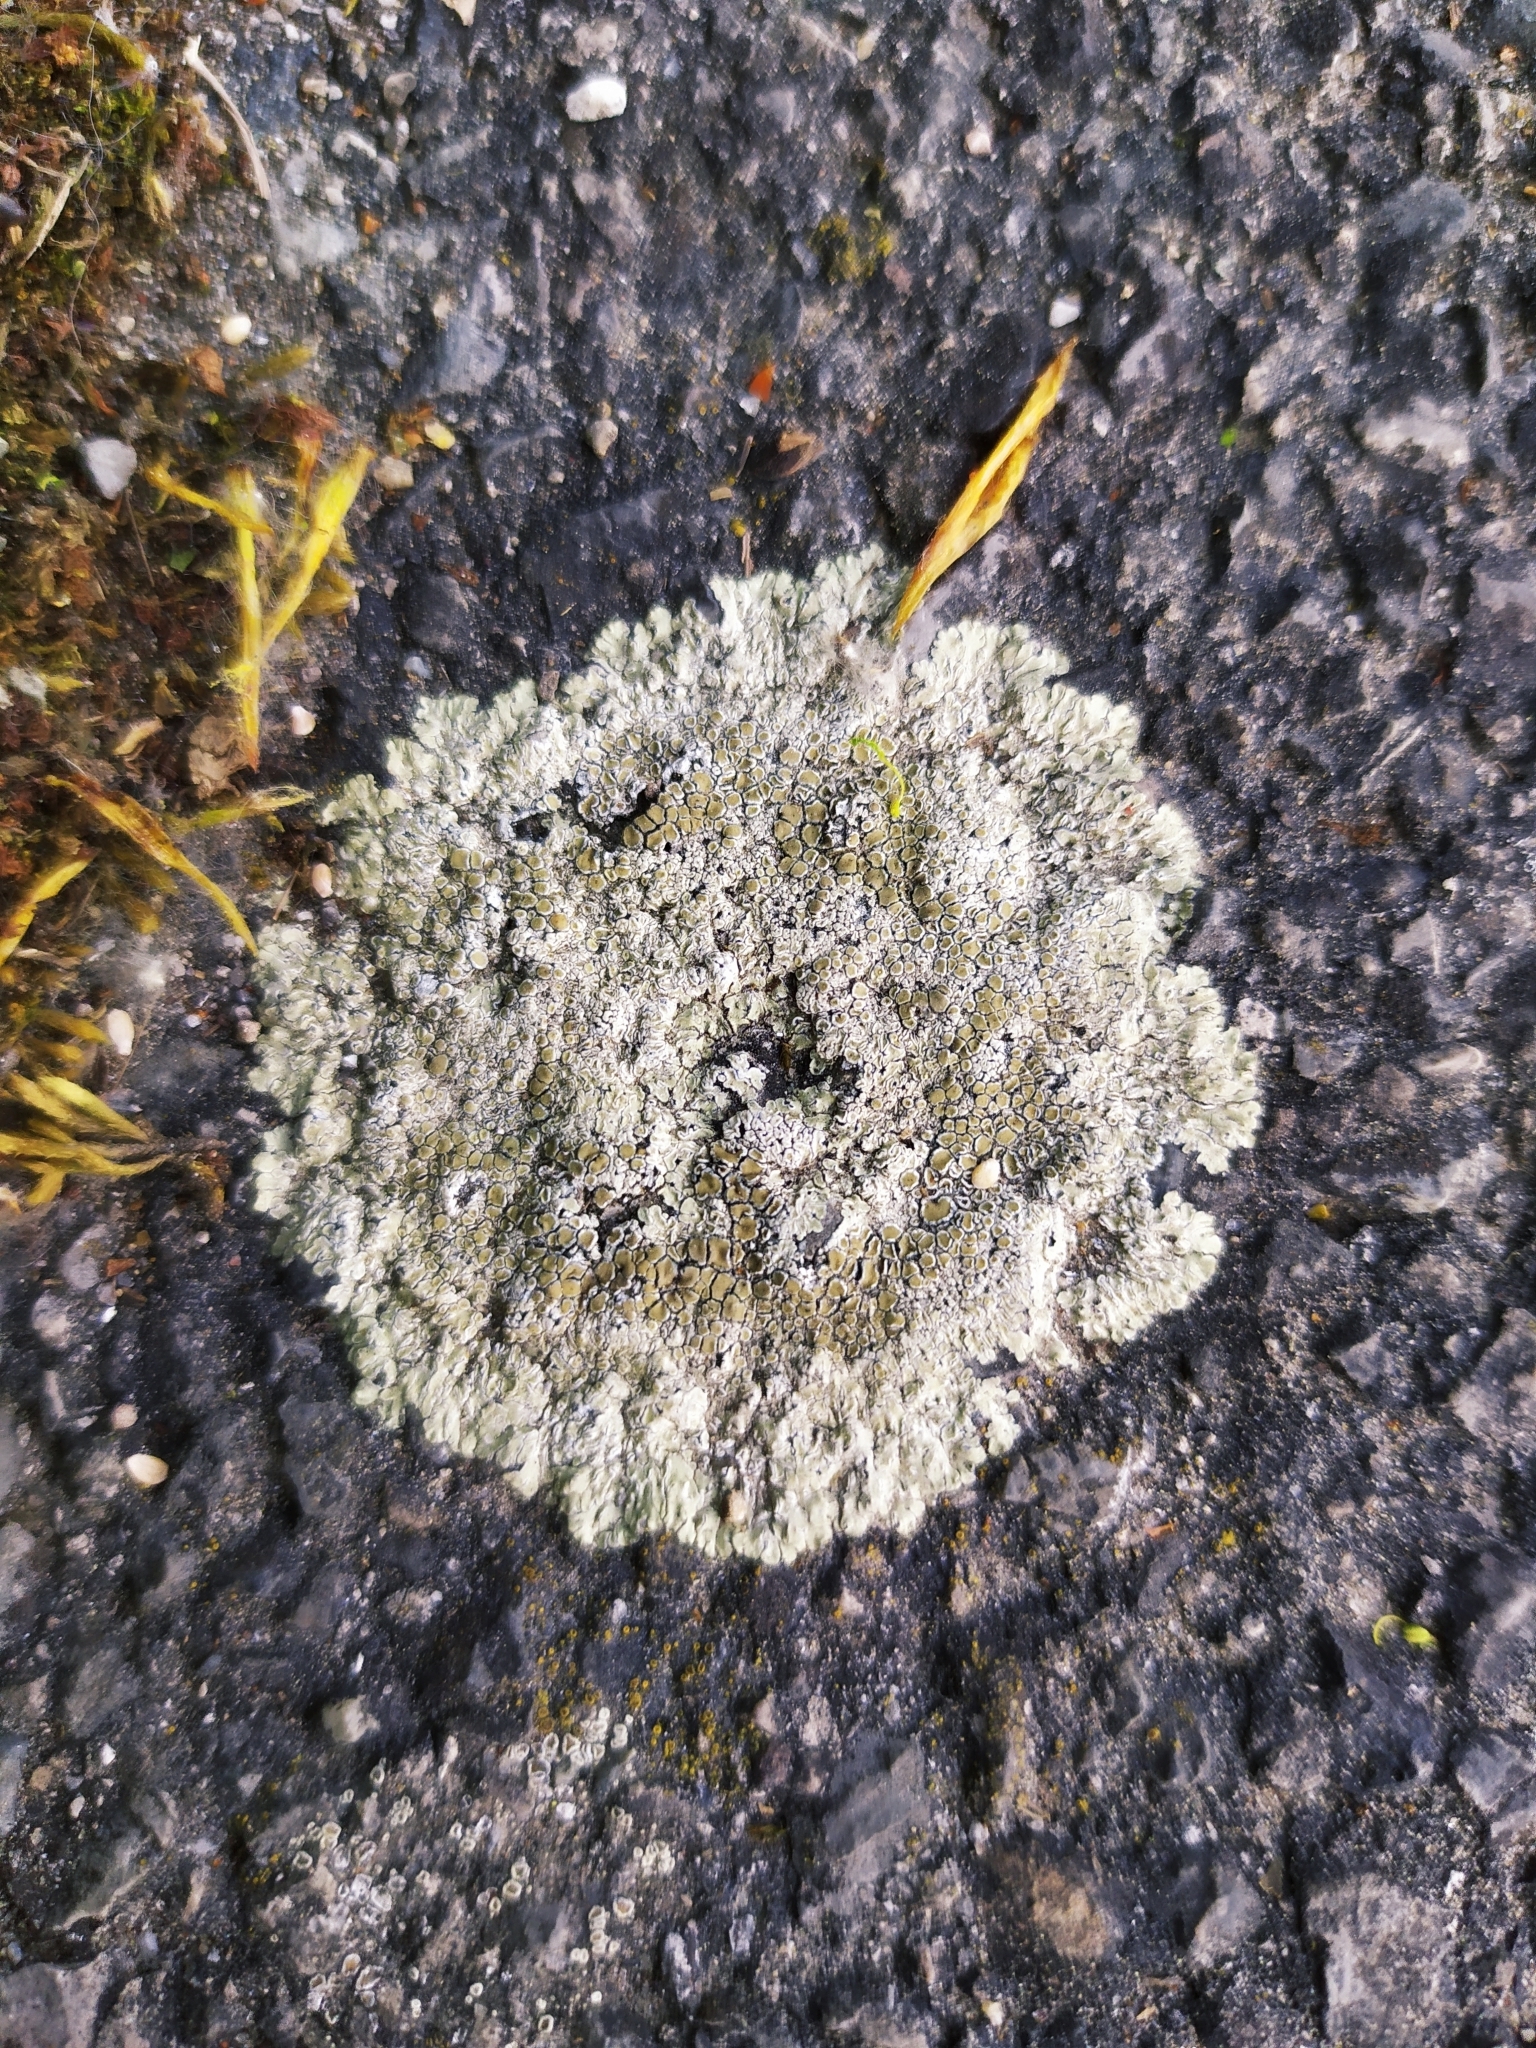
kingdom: Fungi
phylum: Ascomycota
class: Lecanoromycetes
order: Lecanorales
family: Lecanoraceae
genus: Protoparmeliopsis
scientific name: Protoparmeliopsis muralis
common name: Stonewall rim lichen
